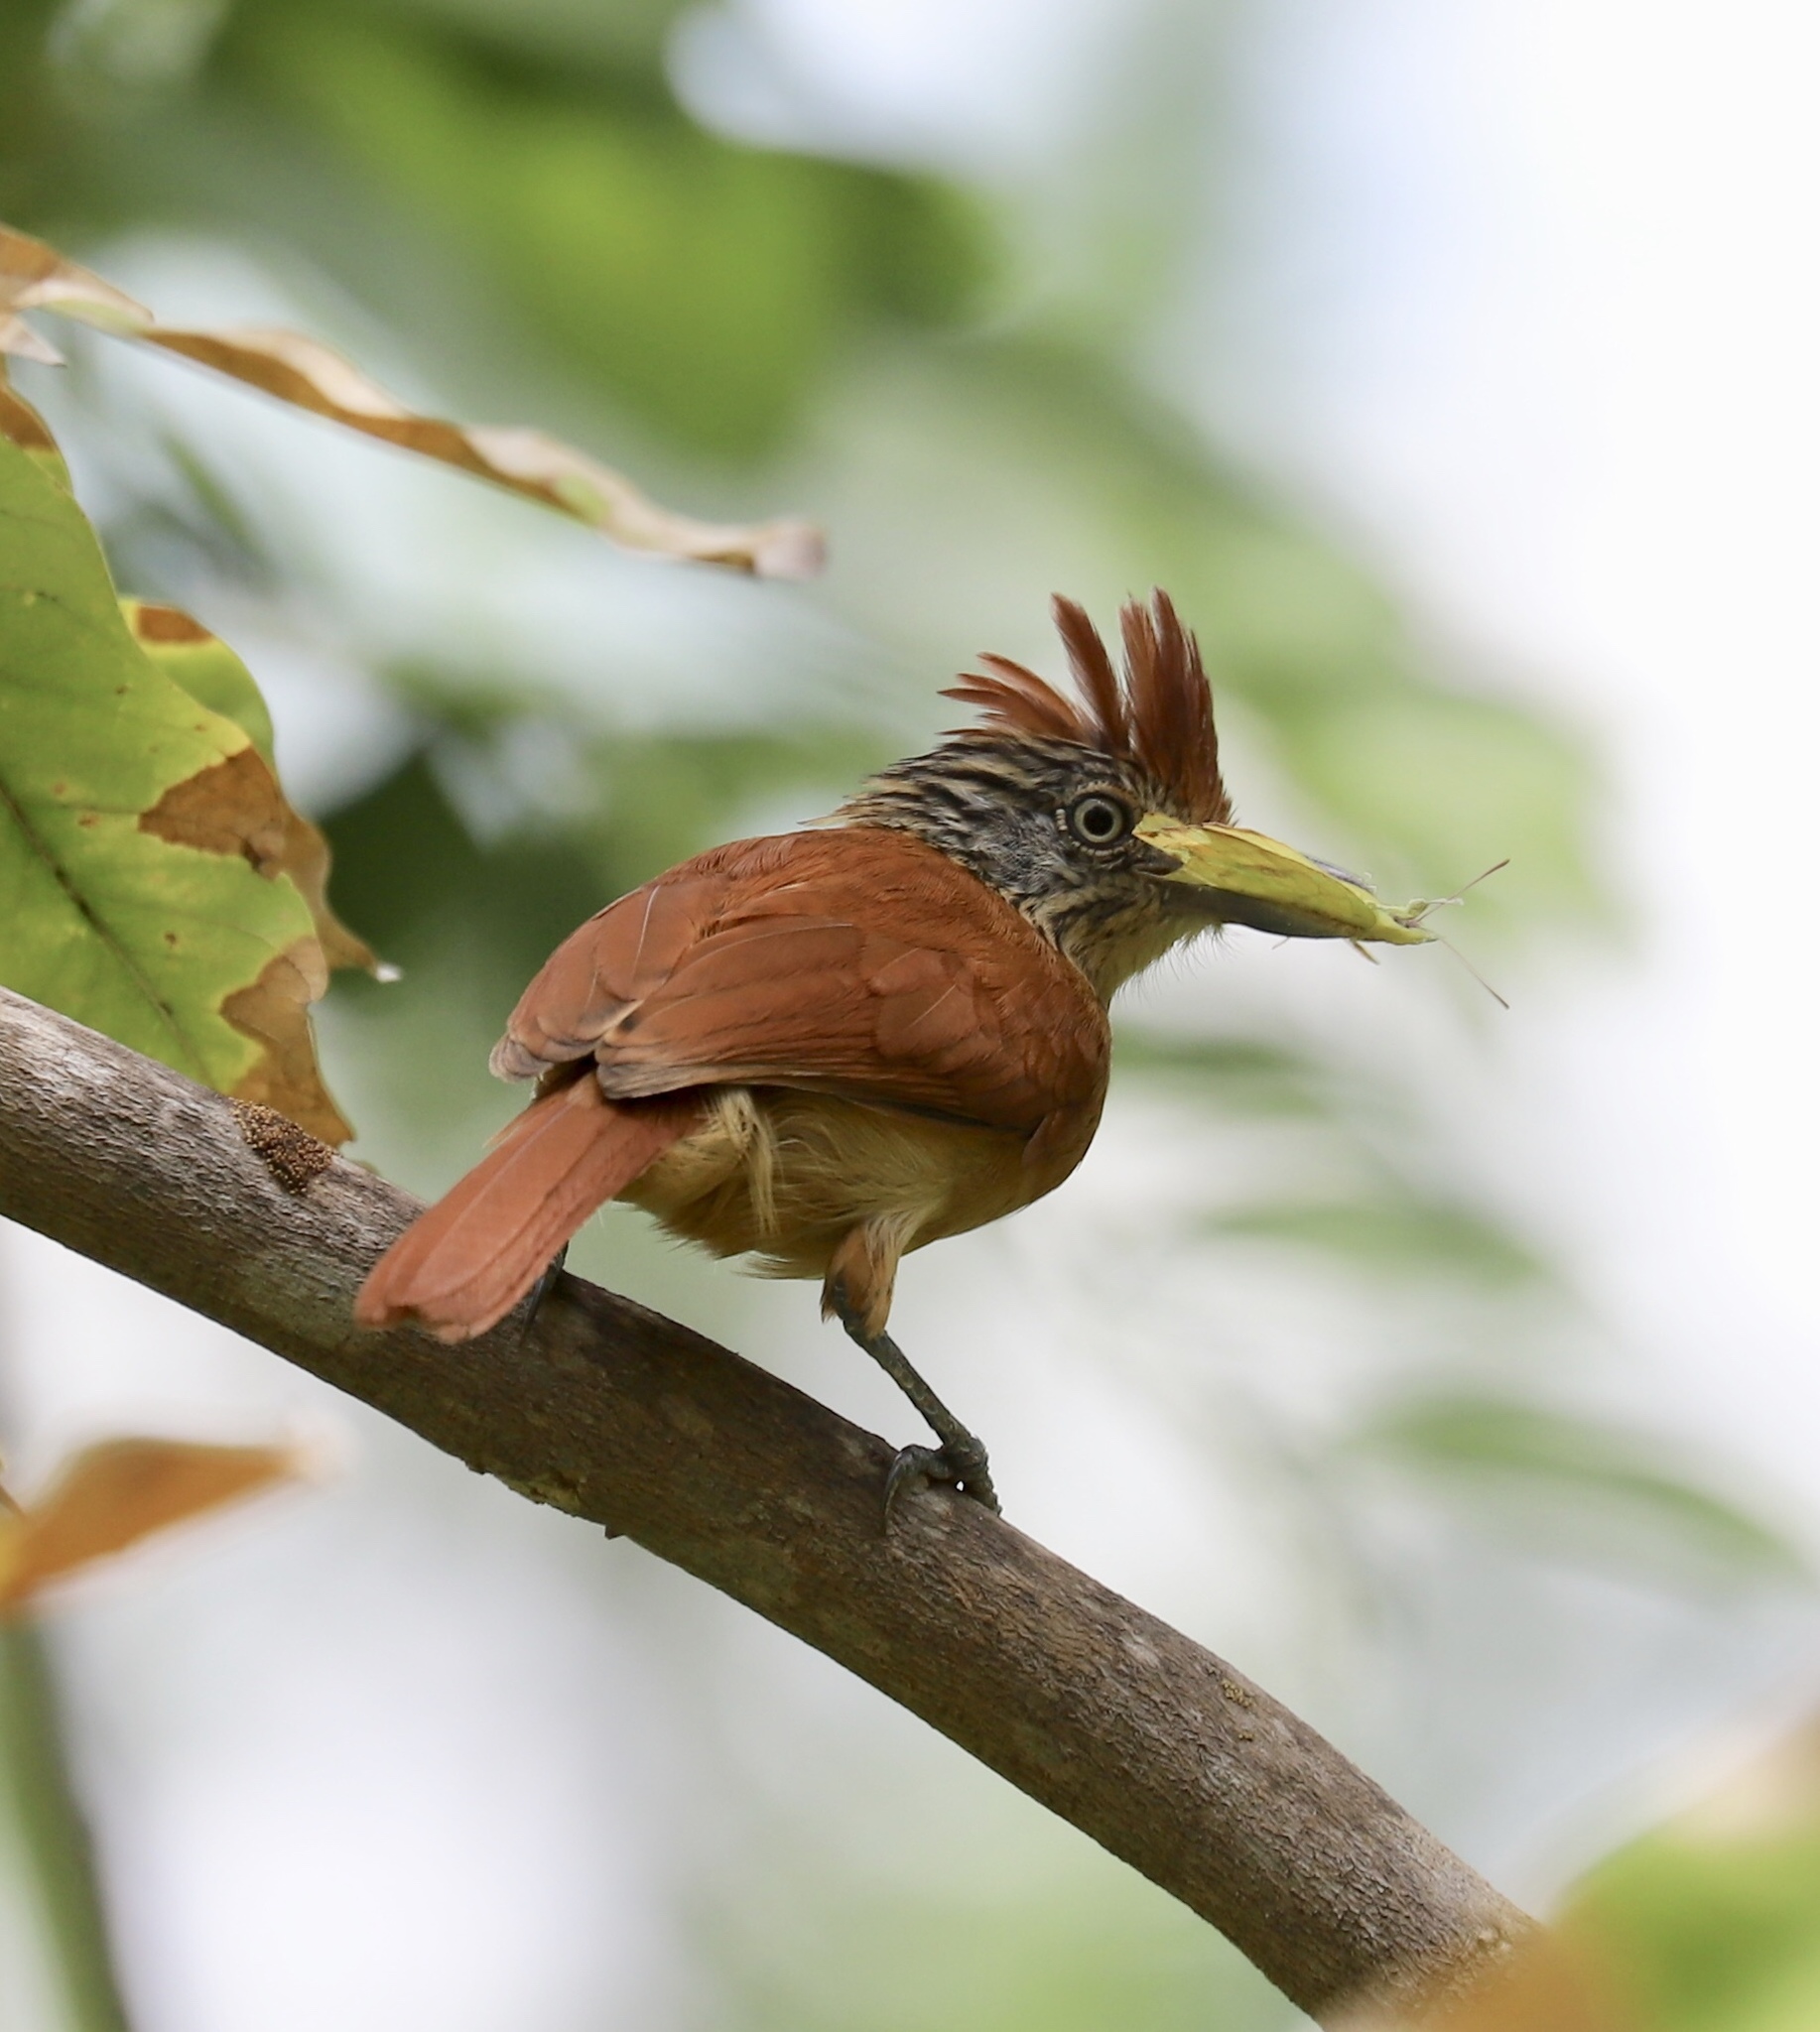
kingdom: Animalia
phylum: Chordata
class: Aves
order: Passeriformes
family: Thamnophilidae
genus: Thamnophilus
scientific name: Thamnophilus doliatus
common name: Barred antshrike
